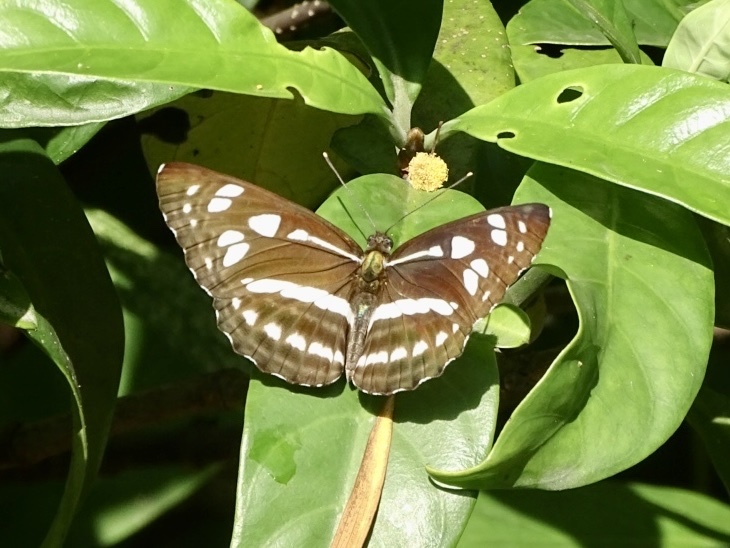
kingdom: Animalia
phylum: Arthropoda
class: Insecta
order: Lepidoptera
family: Nymphalidae
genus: Phaedyma
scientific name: Phaedyma columella
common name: Short banded sailer
